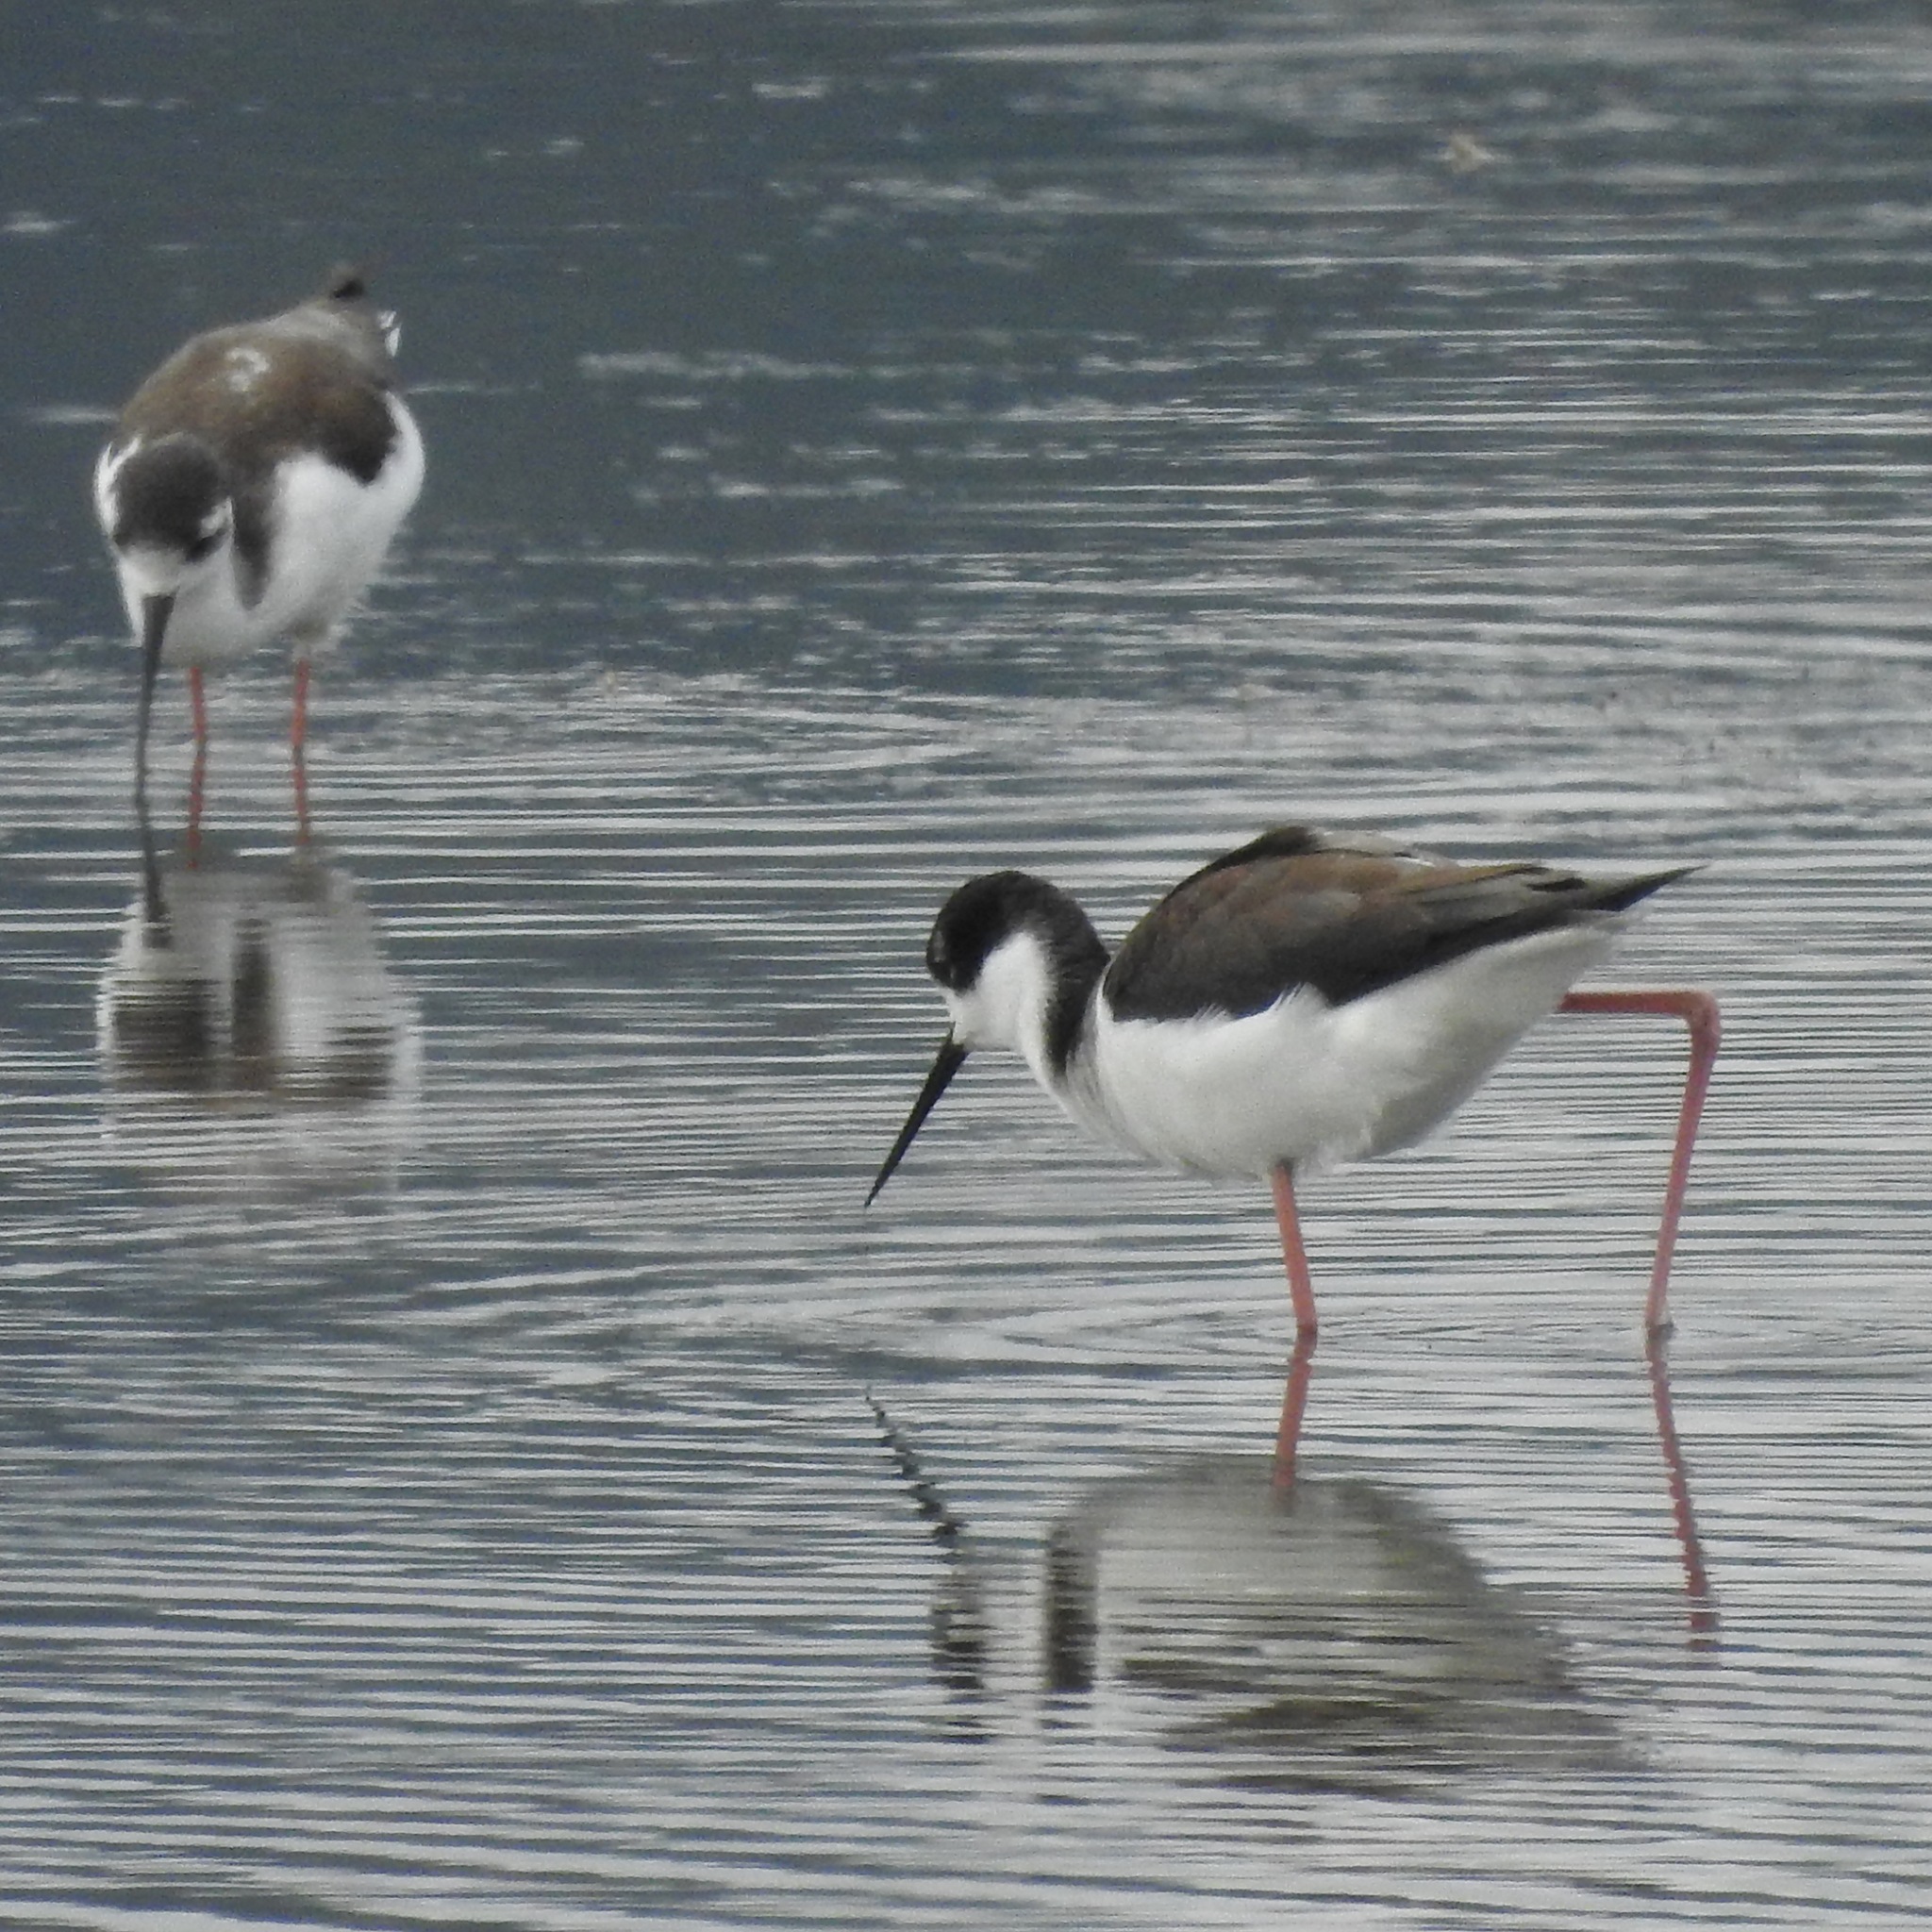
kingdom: Animalia
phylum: Chordata
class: Aves
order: Charadriiformes
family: Recurvirostridae
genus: Himantopus
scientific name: Himantopus mexicanus
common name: Black-necked stilt
